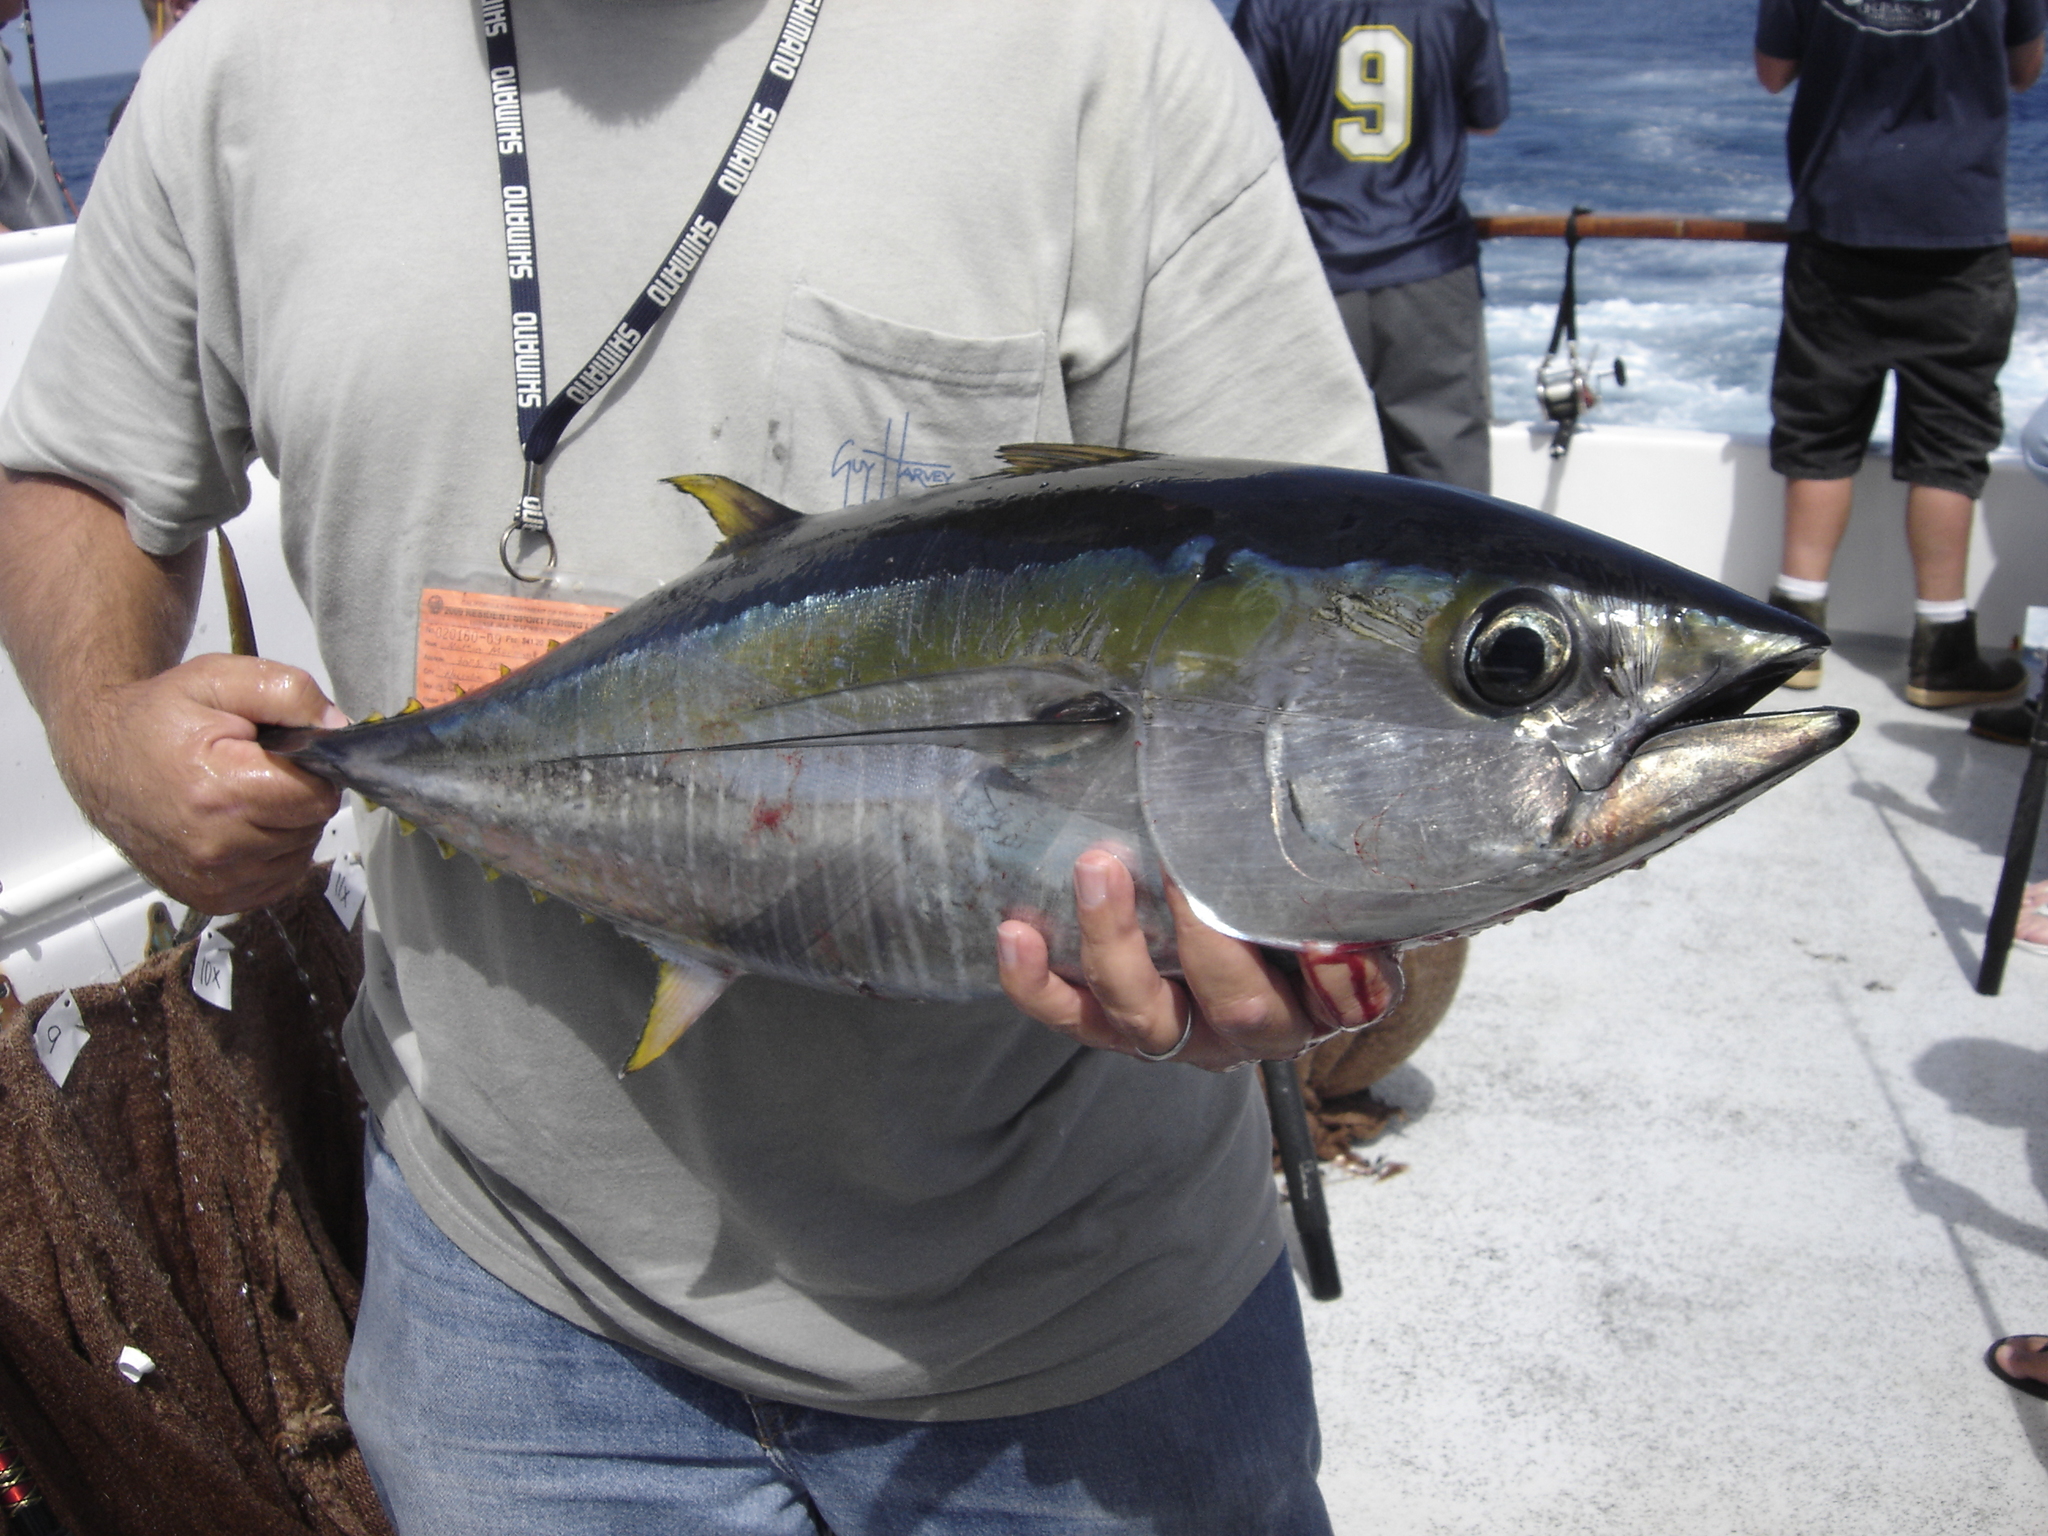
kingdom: Animalia
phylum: Chordata
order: Perciformes
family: Scombridae
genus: Thunnus
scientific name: Thunnus albacares
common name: Yellowfin tuna
